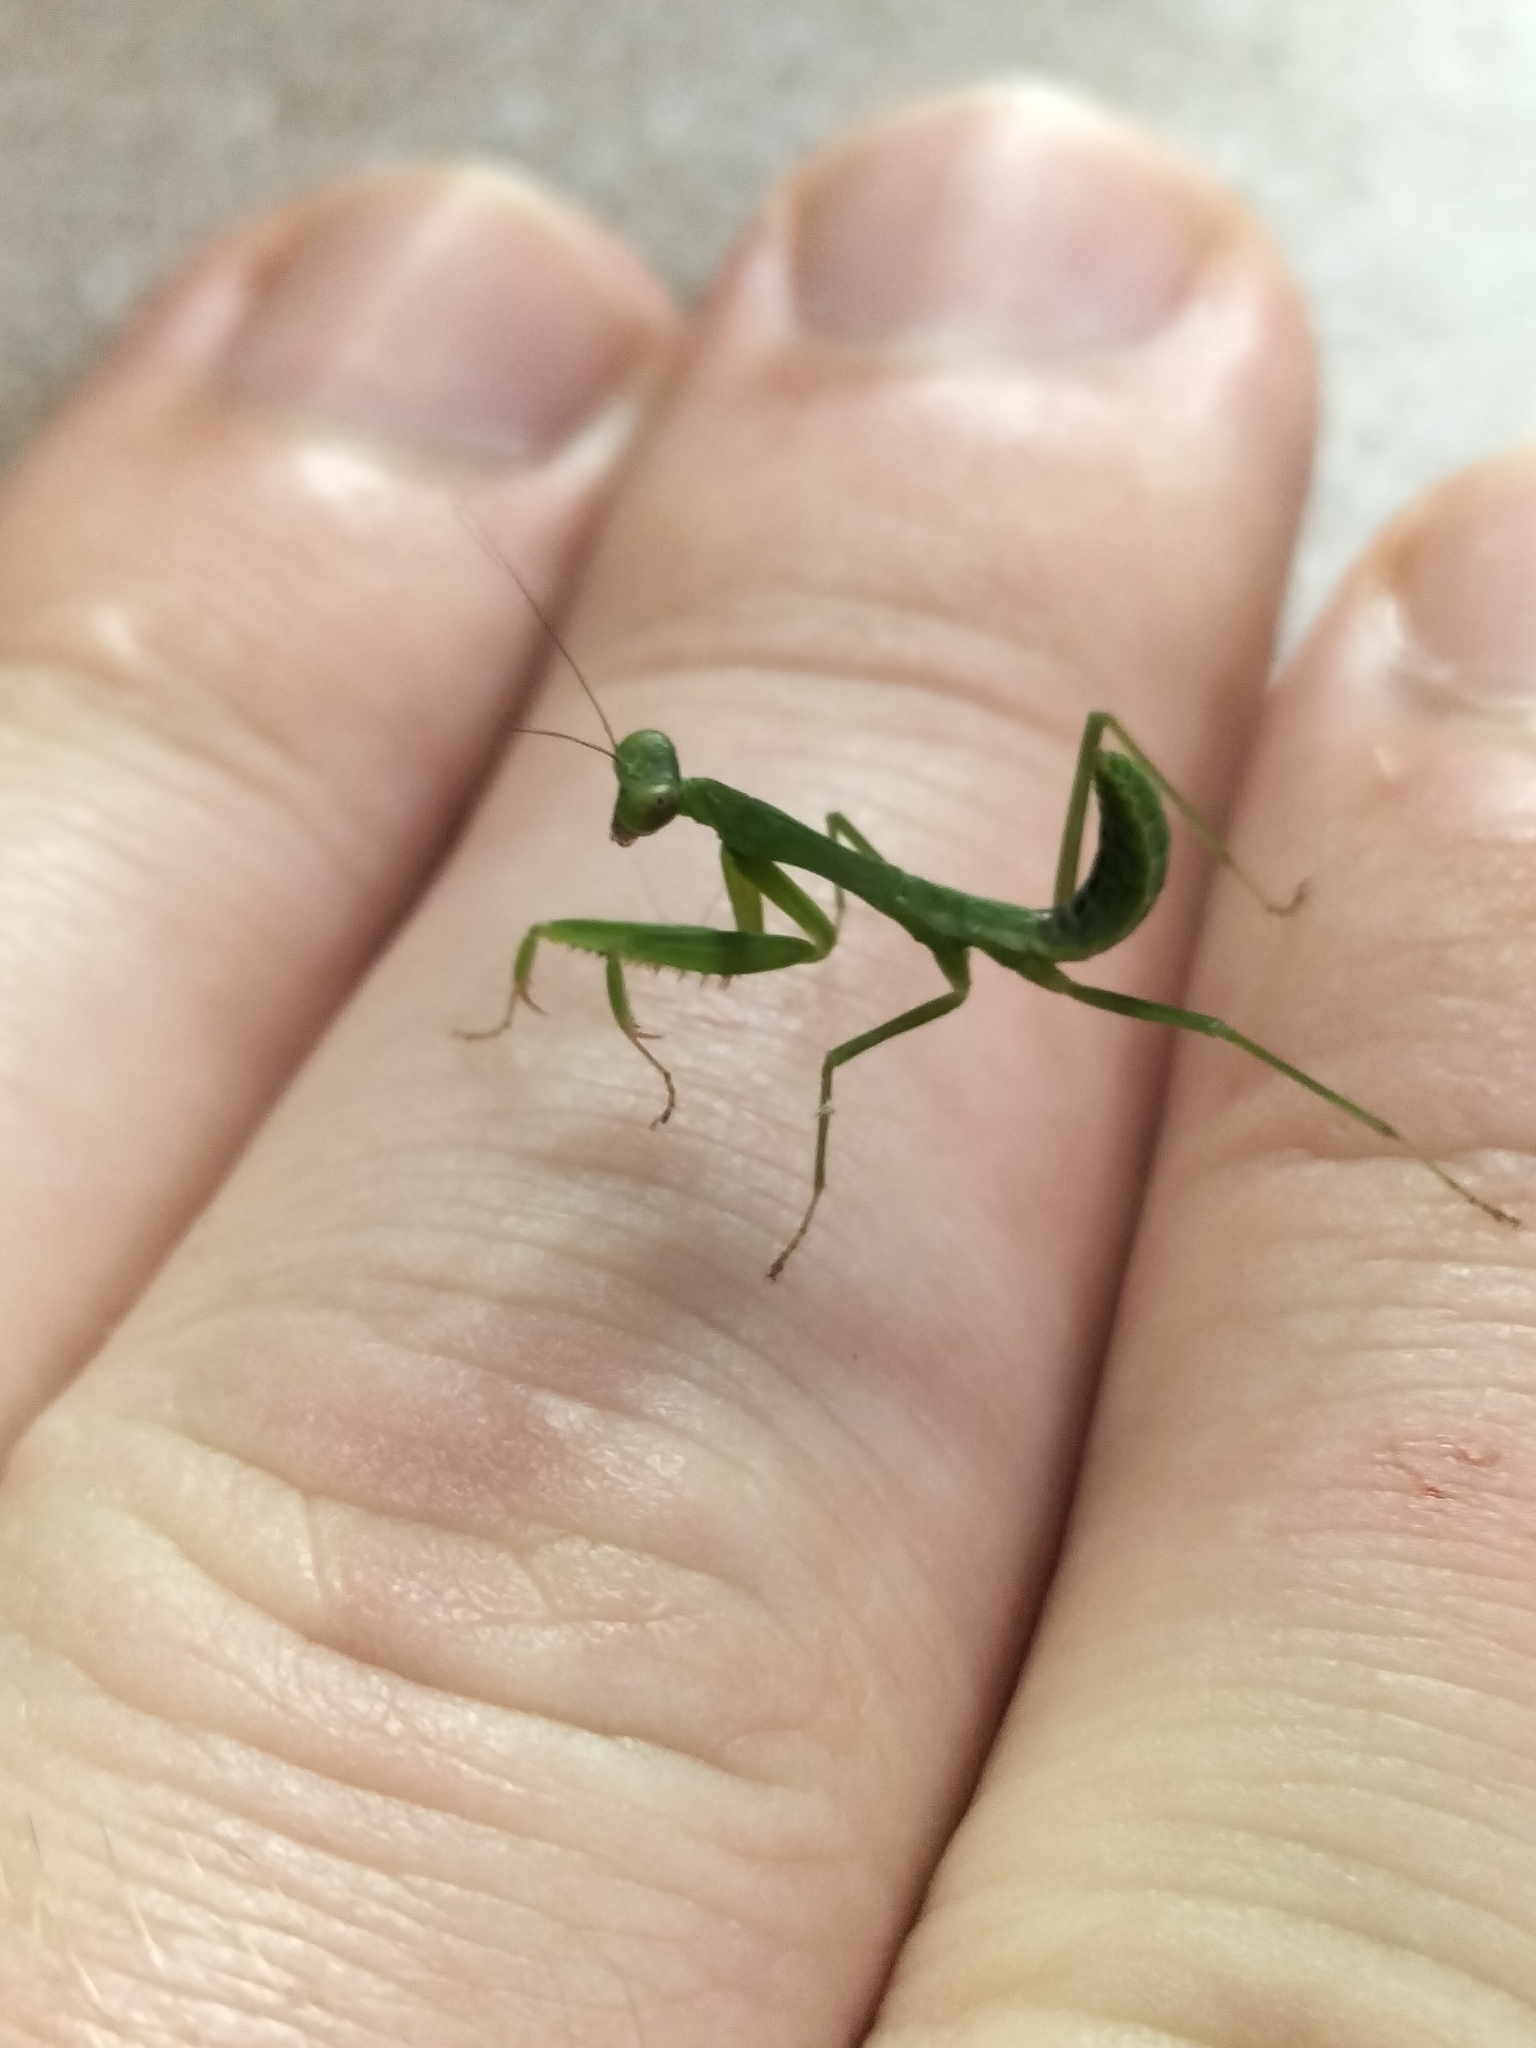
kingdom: Animalia
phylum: Arthropoda
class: Insecta
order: Mantodea
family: Mantidae
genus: Hierodula
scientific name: Hierodula majuscula
